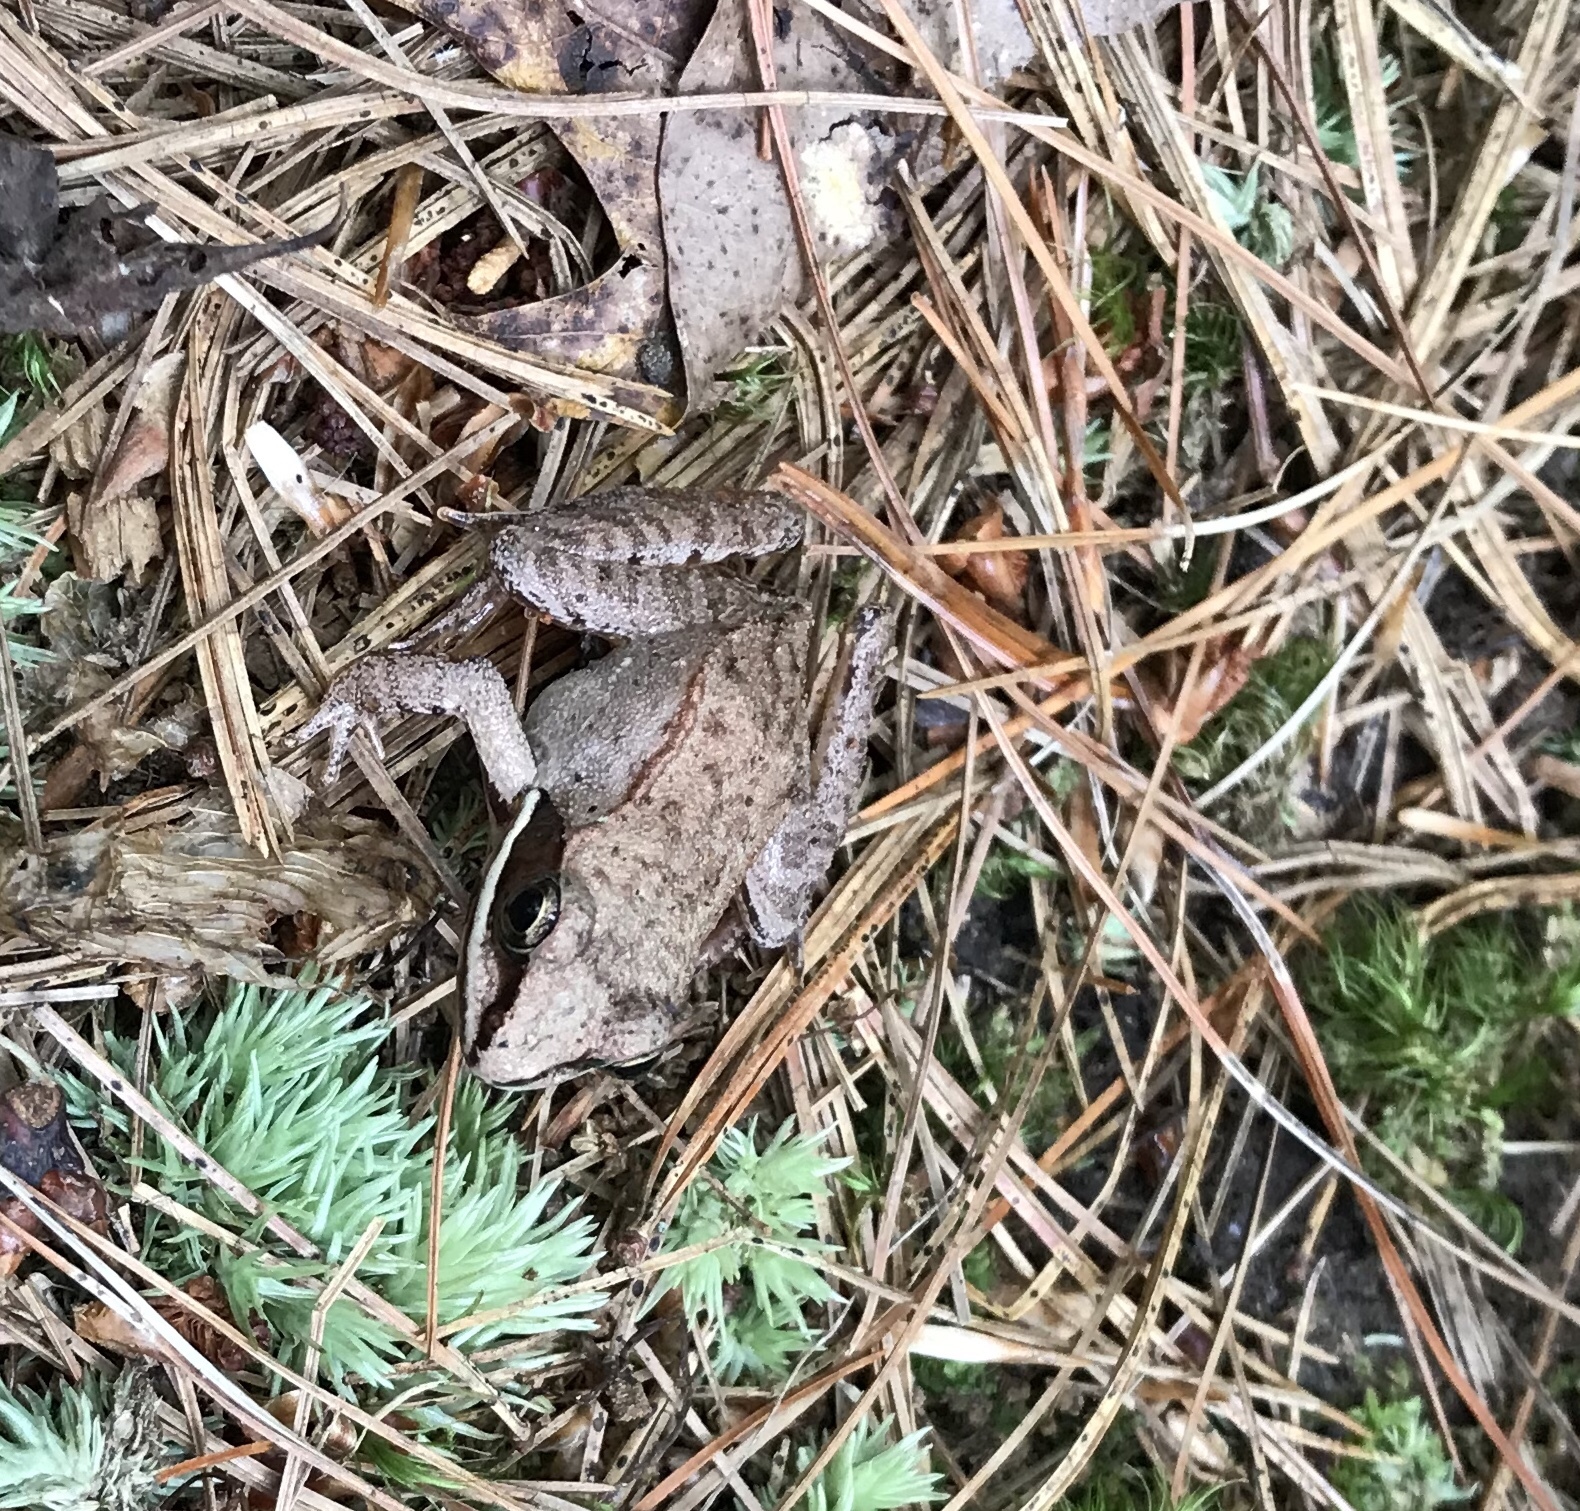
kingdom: Animalia
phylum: Chordata
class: Amphibia
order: Anura
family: Ranidae
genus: Lithobates
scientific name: Lithobates sylvaticus
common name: Wood frog
